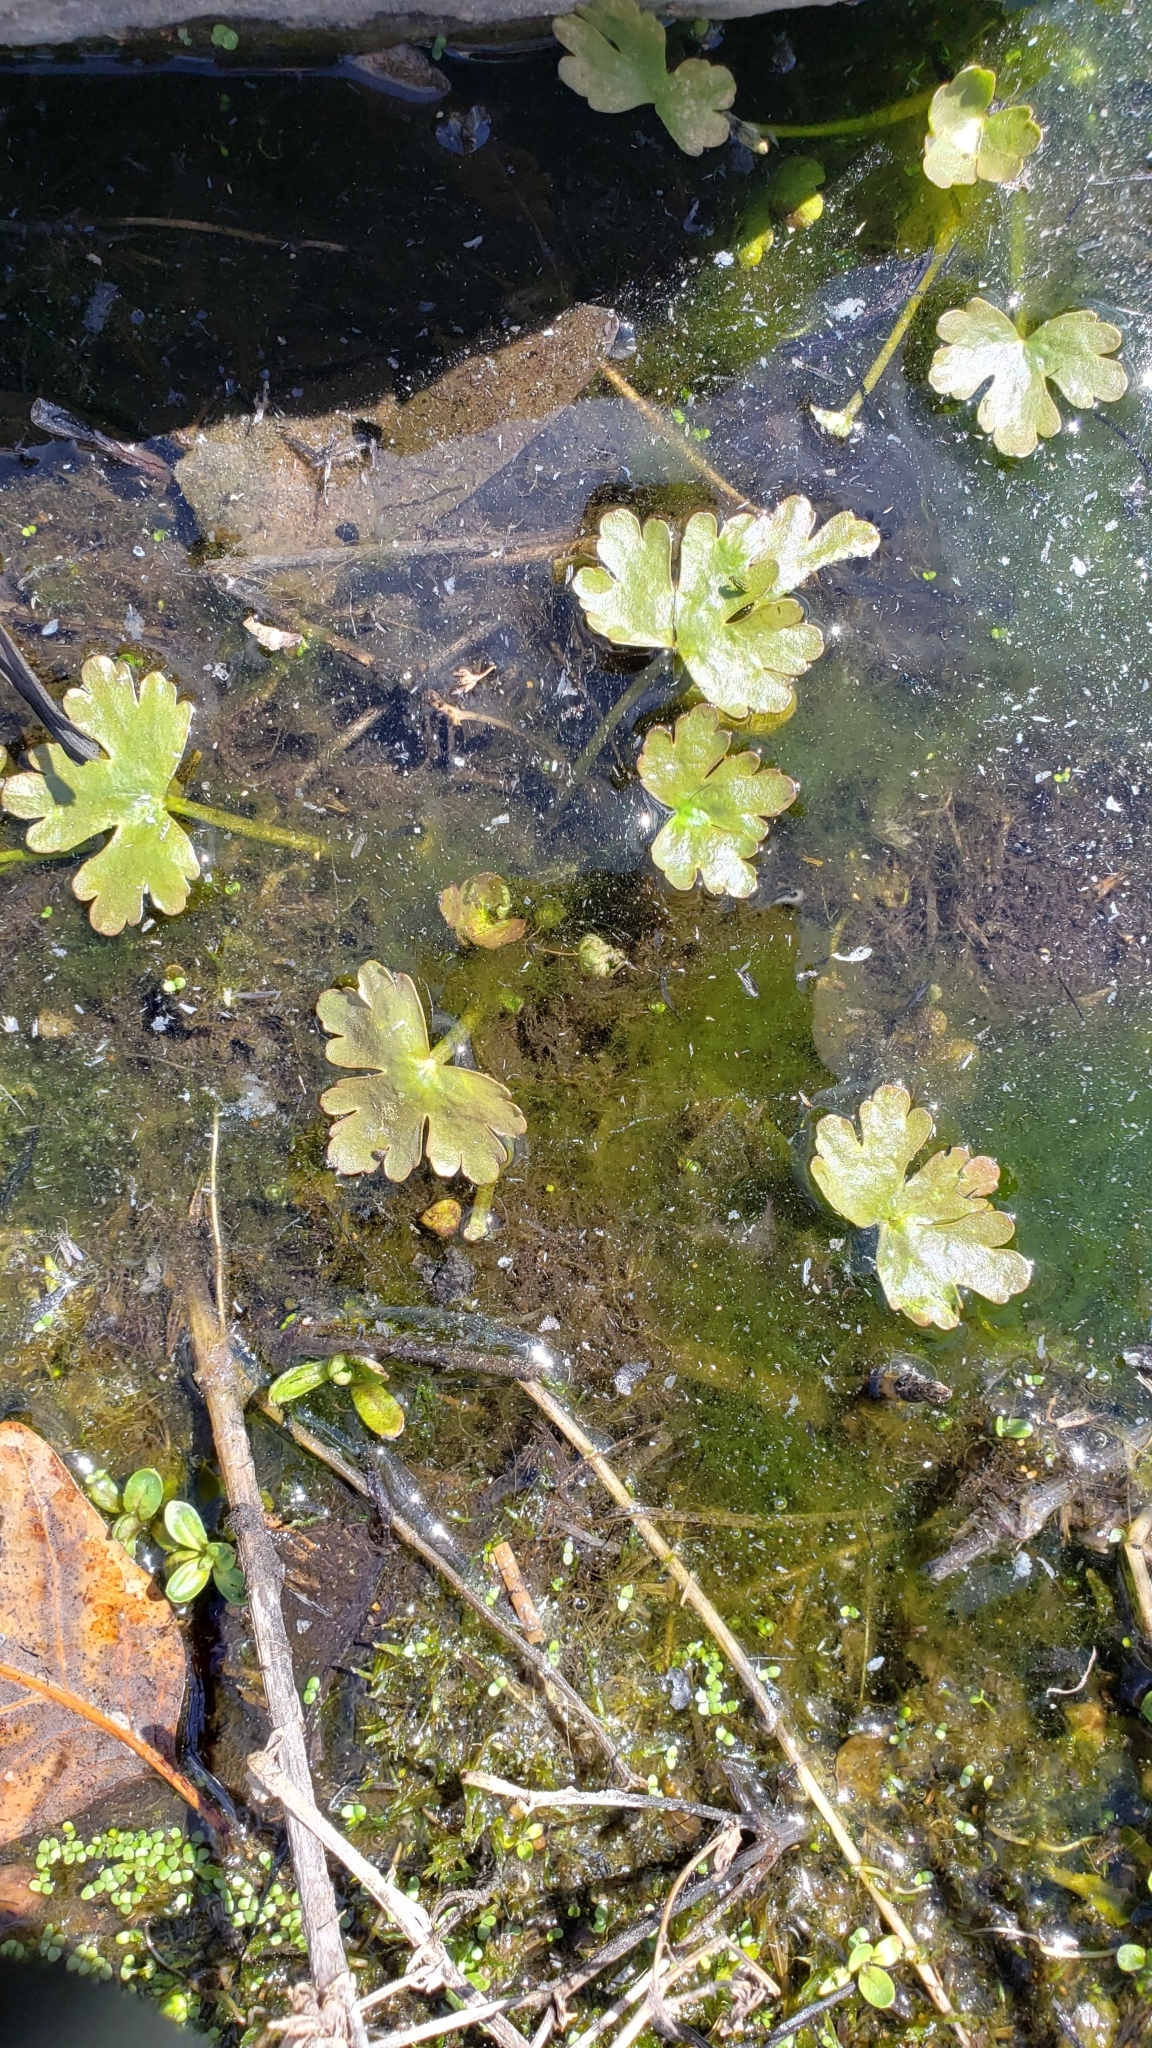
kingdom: Plantae
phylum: Tracheophyta
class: Magnoliopsida
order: Ranunculales
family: Ranunculaceae
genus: Ranunculus
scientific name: Ranunculus sceleratus
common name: Celery-leaved buttercup
